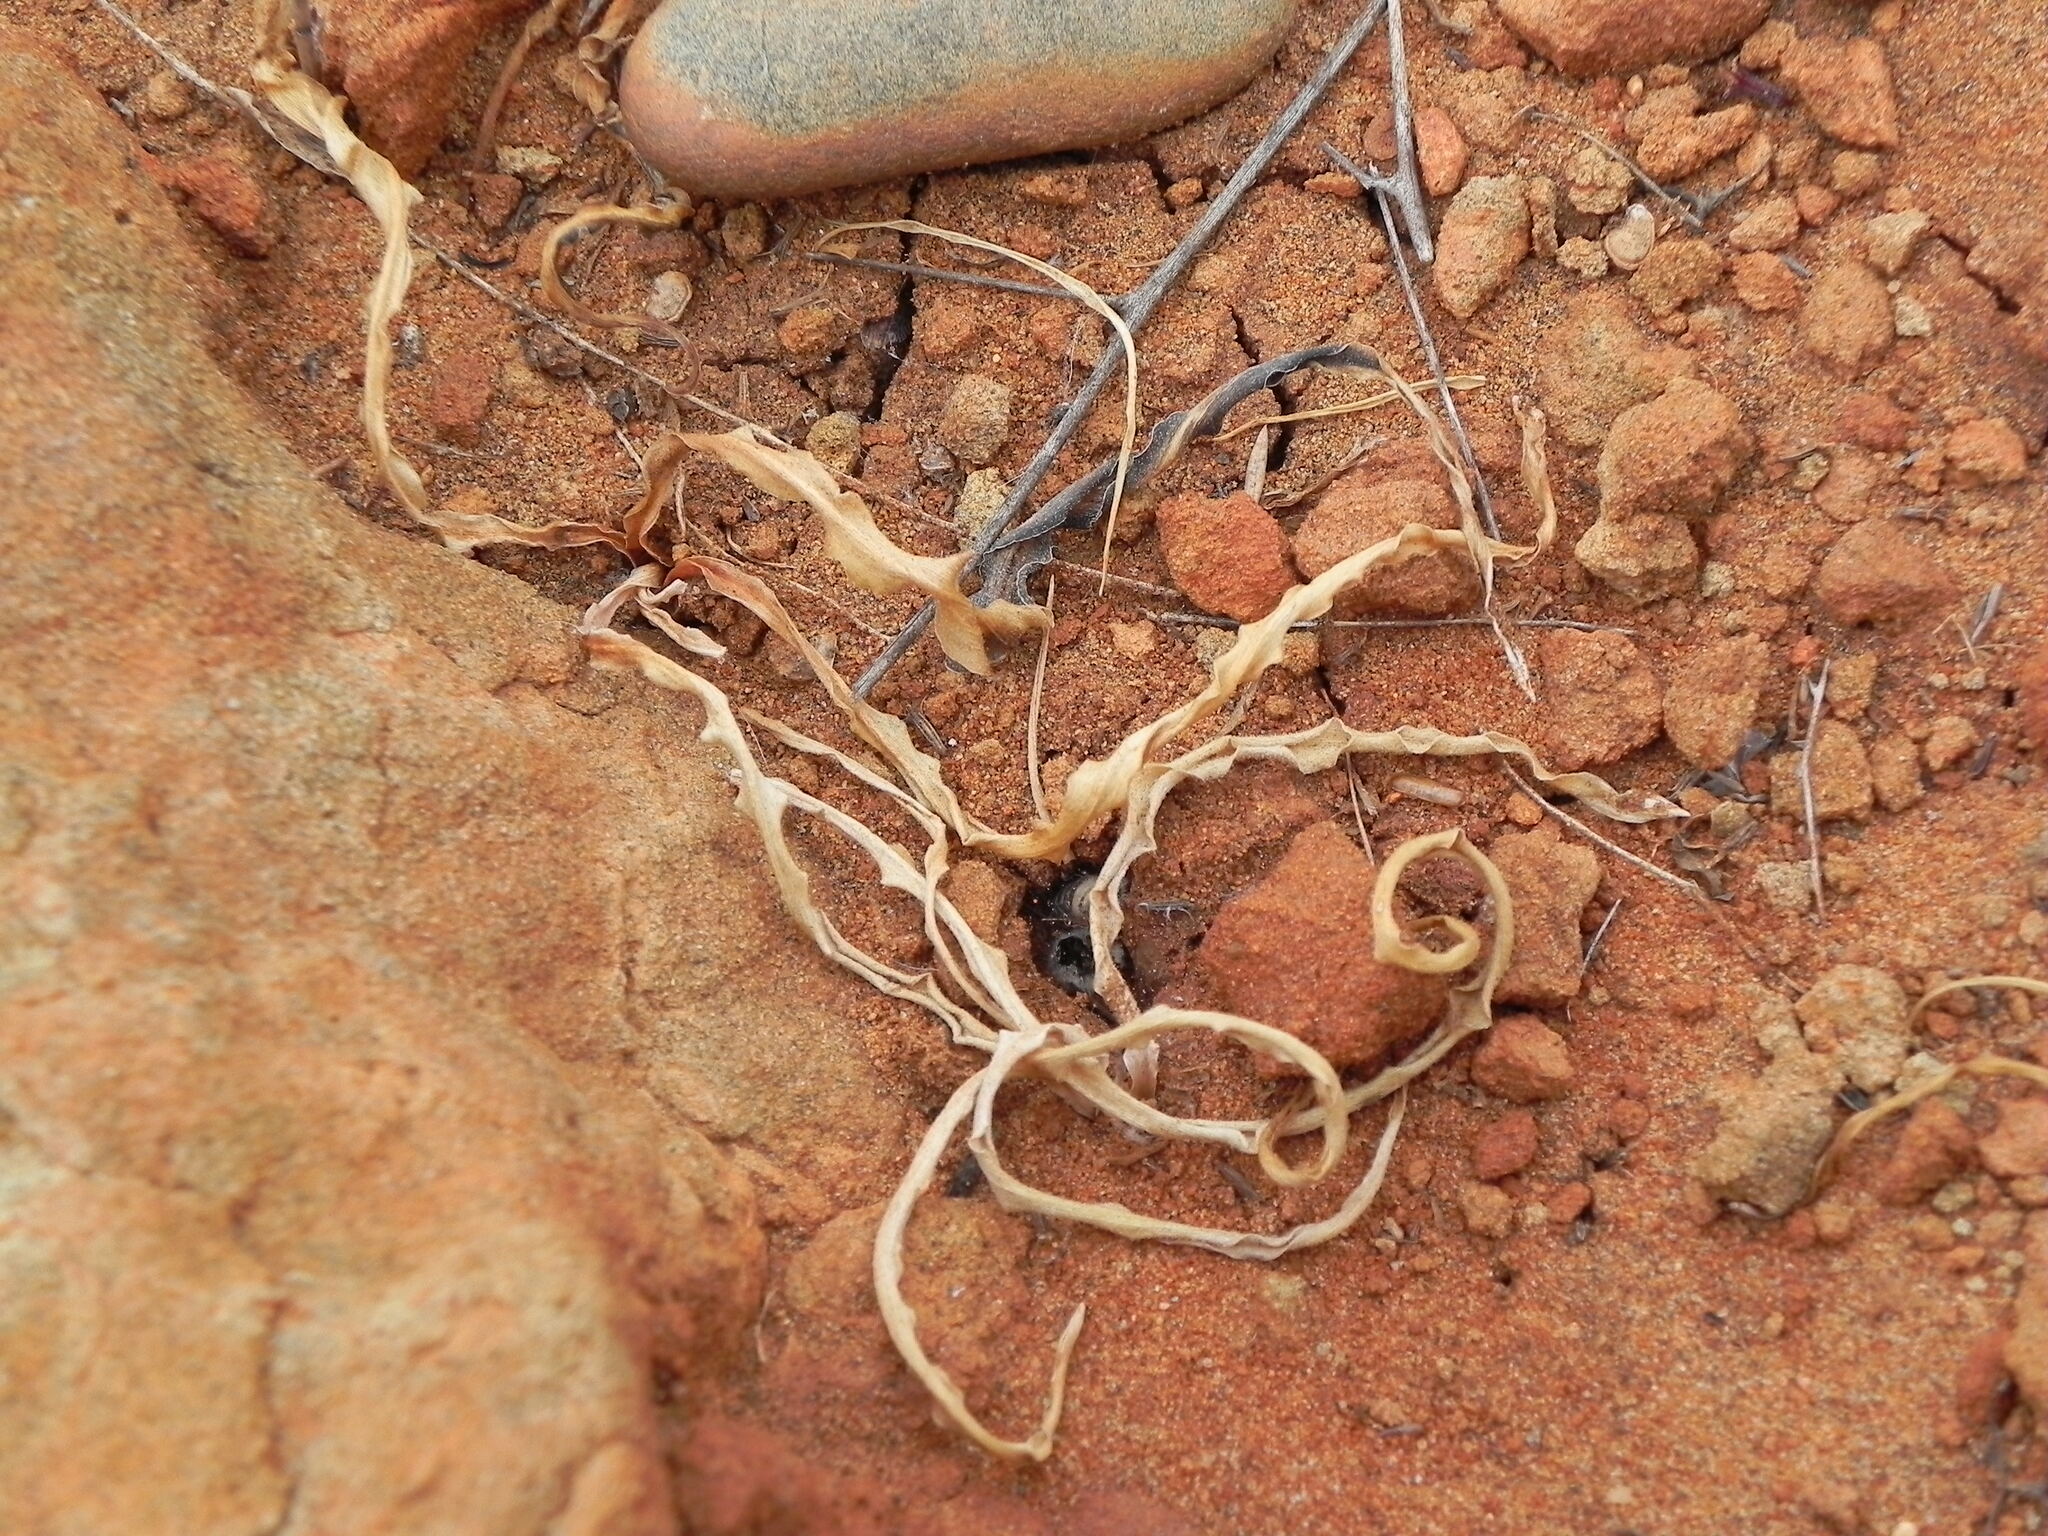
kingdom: Plantae
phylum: Tracheophyta
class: Liliopsida
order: Asparagales
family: Asparagaceae
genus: Hooveria
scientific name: Hooveria parviflora
